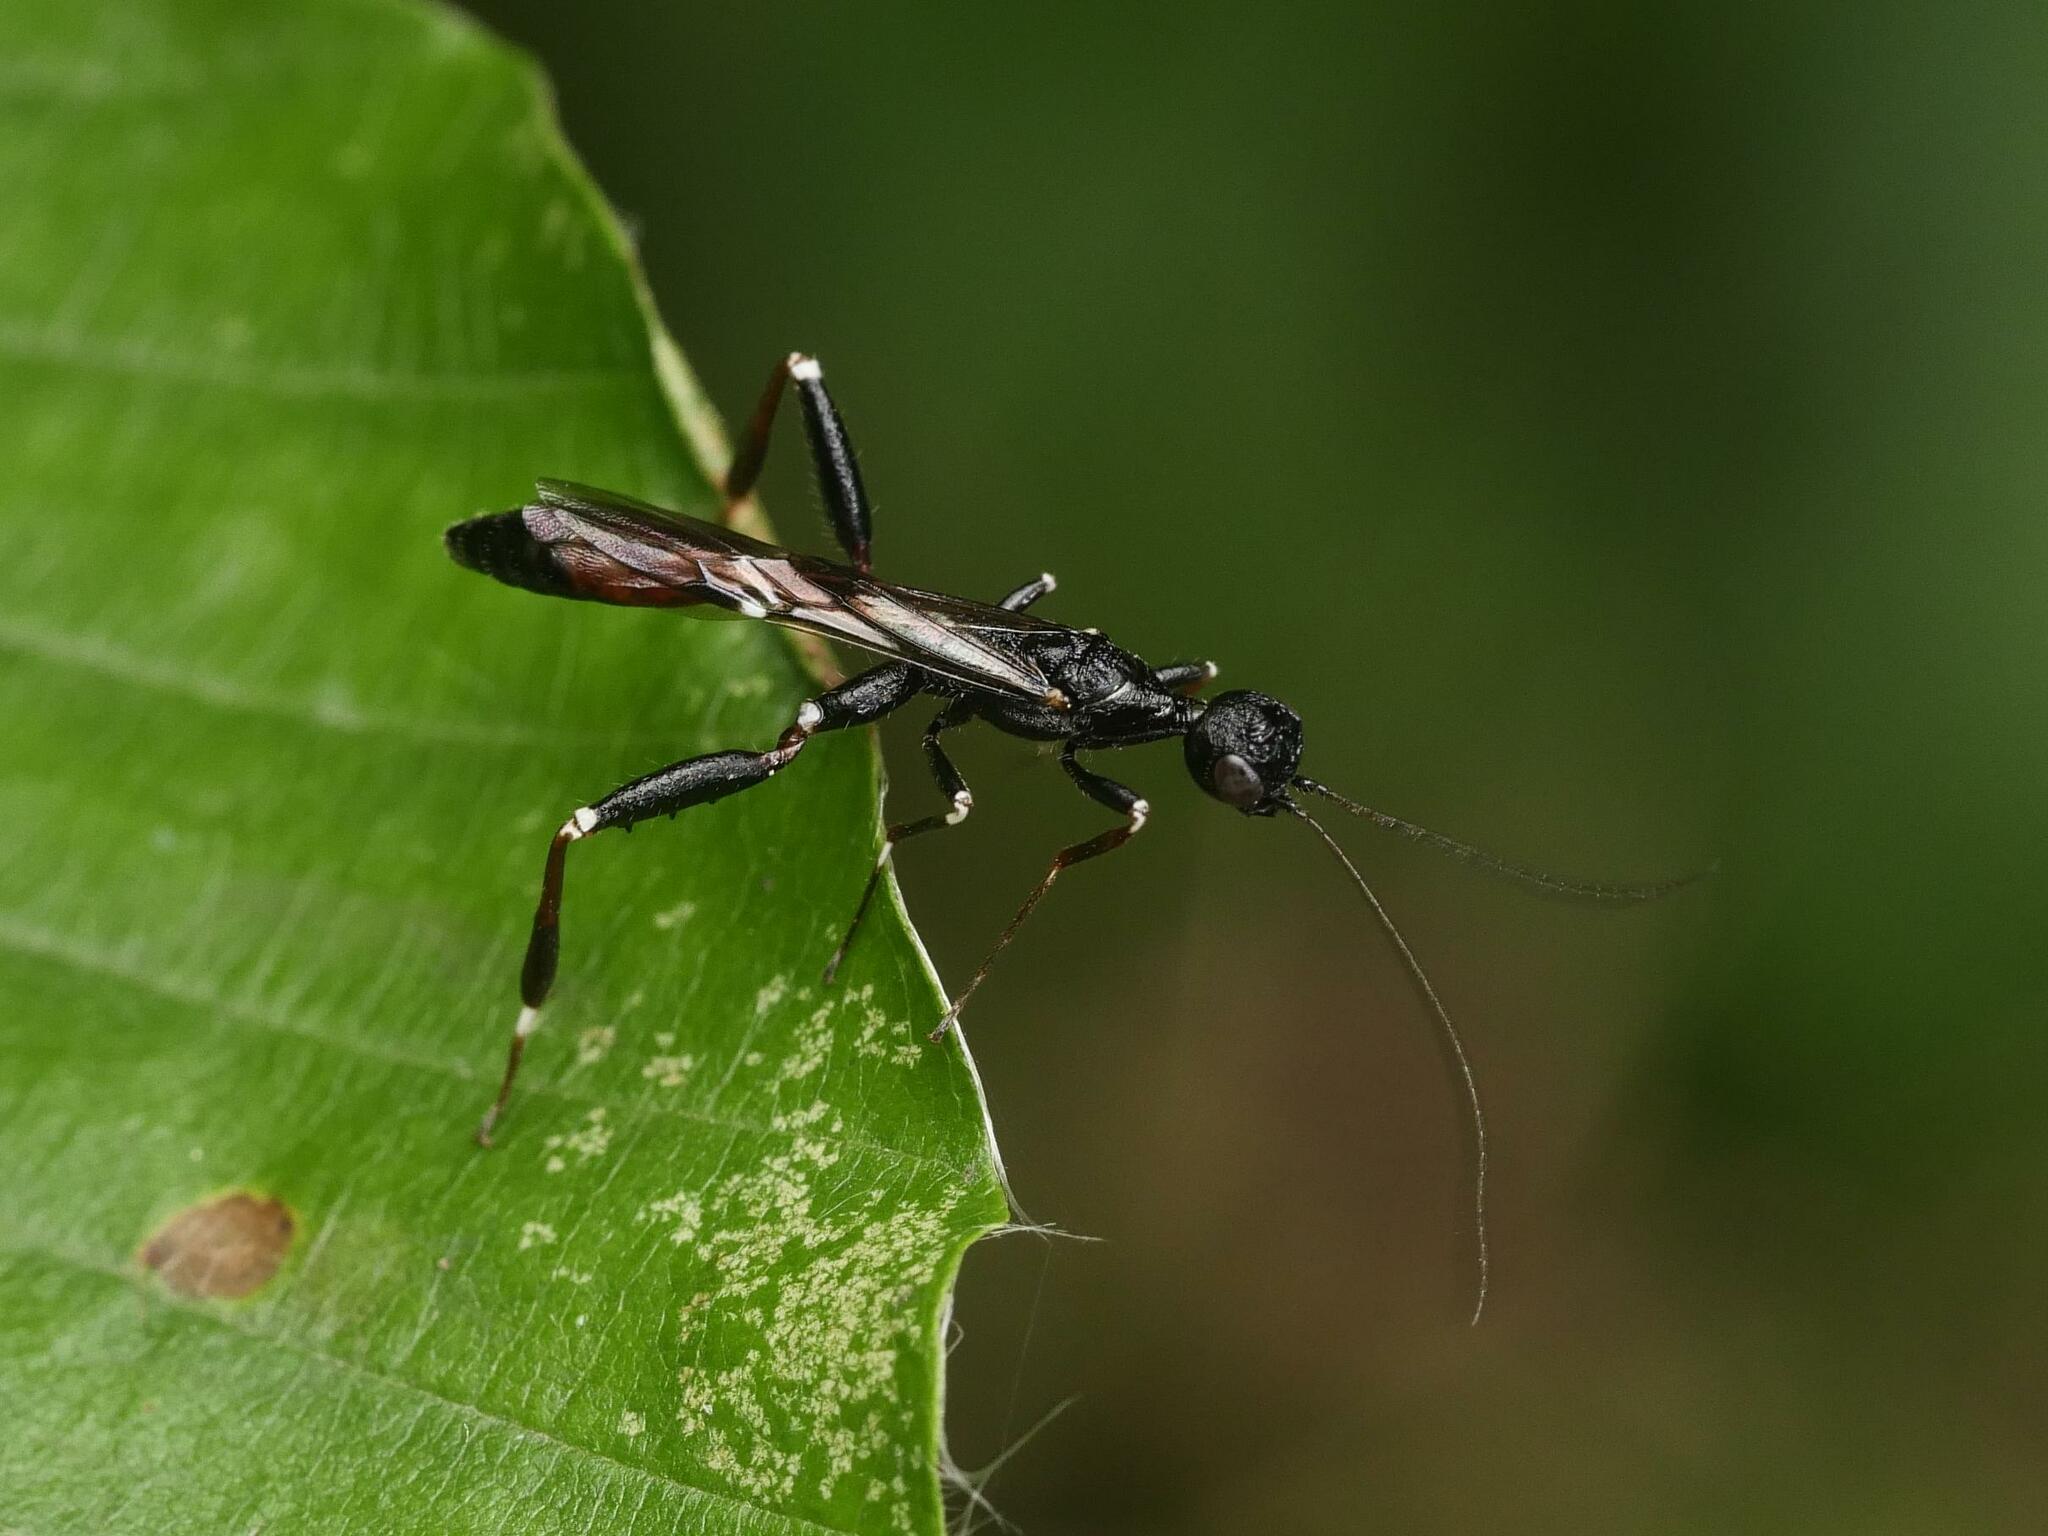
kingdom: Animalia
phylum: Arthropoda
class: Insecta
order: Hymenoptera
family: Stephanidae
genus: Stephanus
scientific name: Stephanus serrator
